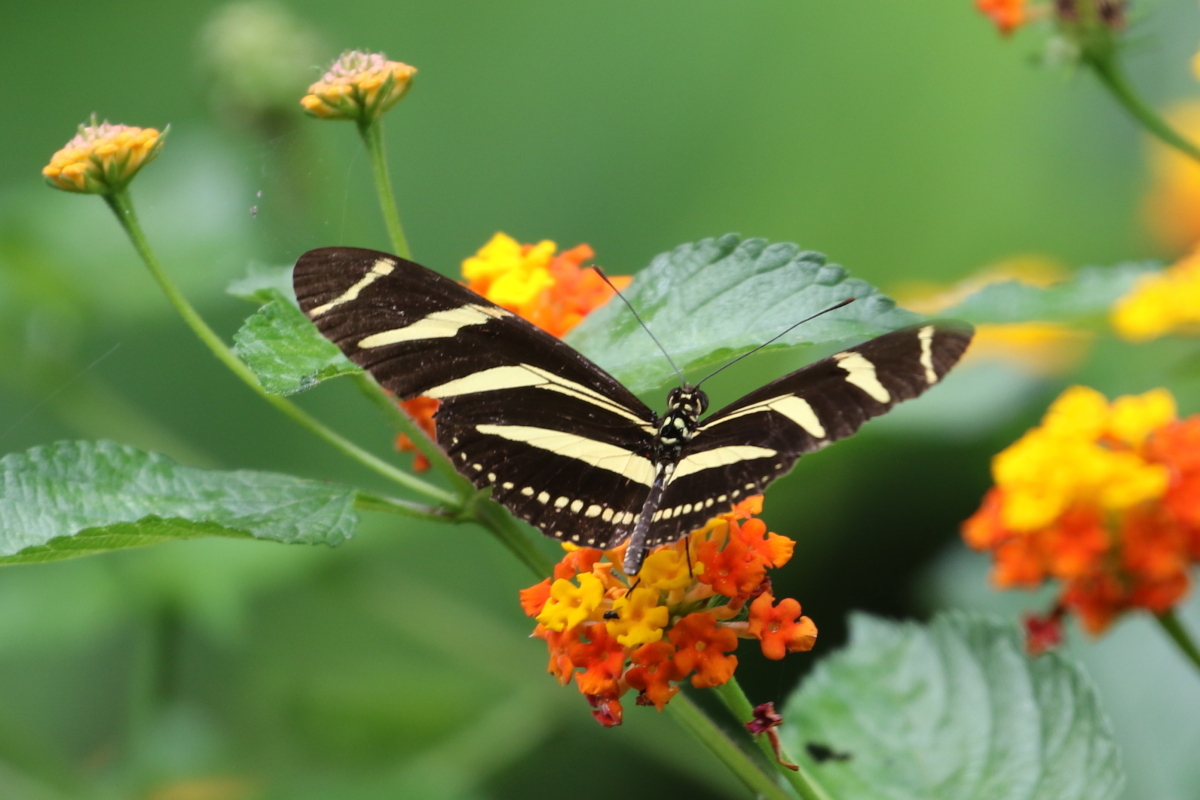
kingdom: Animalia
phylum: Arthropoda
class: Insecta
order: Lepidoptera
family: Nymphalidae
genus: Heliconius
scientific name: Heliconius charithonia
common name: Zebra long wing
